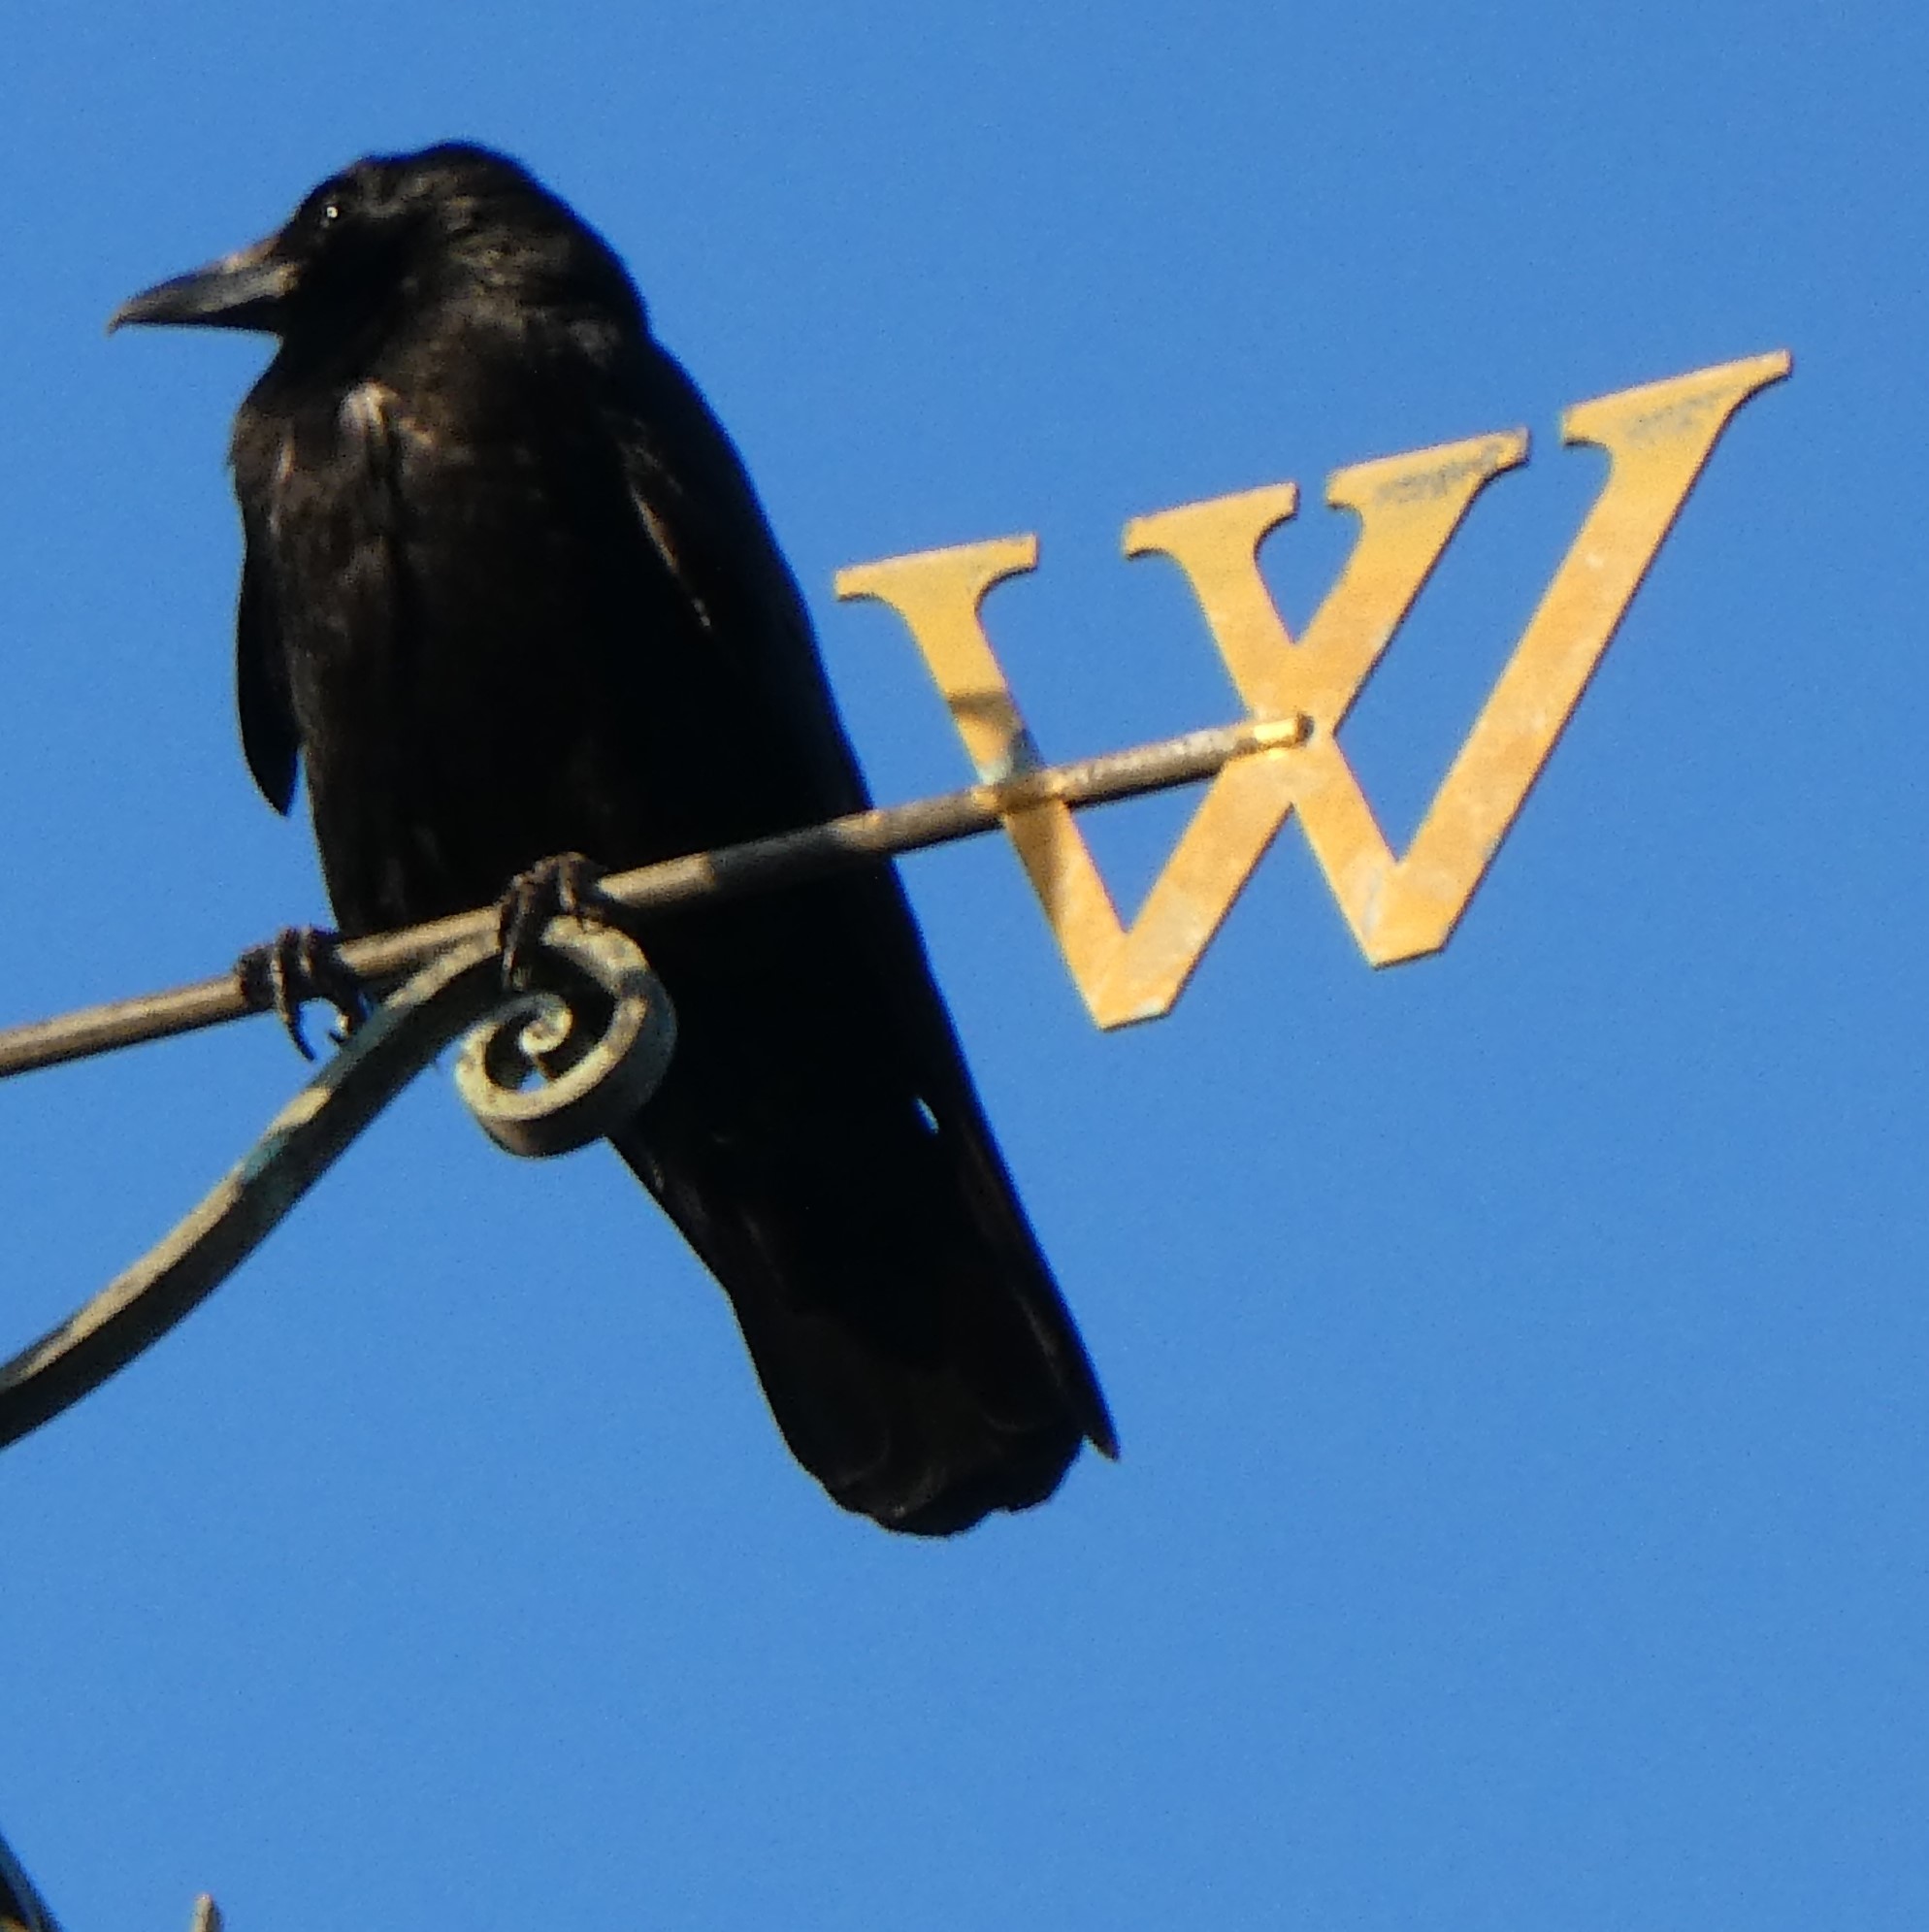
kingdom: Animalia
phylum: Chordata
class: Aves
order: Passeriformes
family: Corvidae
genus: Corvus
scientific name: Corvus corone
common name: Carrion crow
